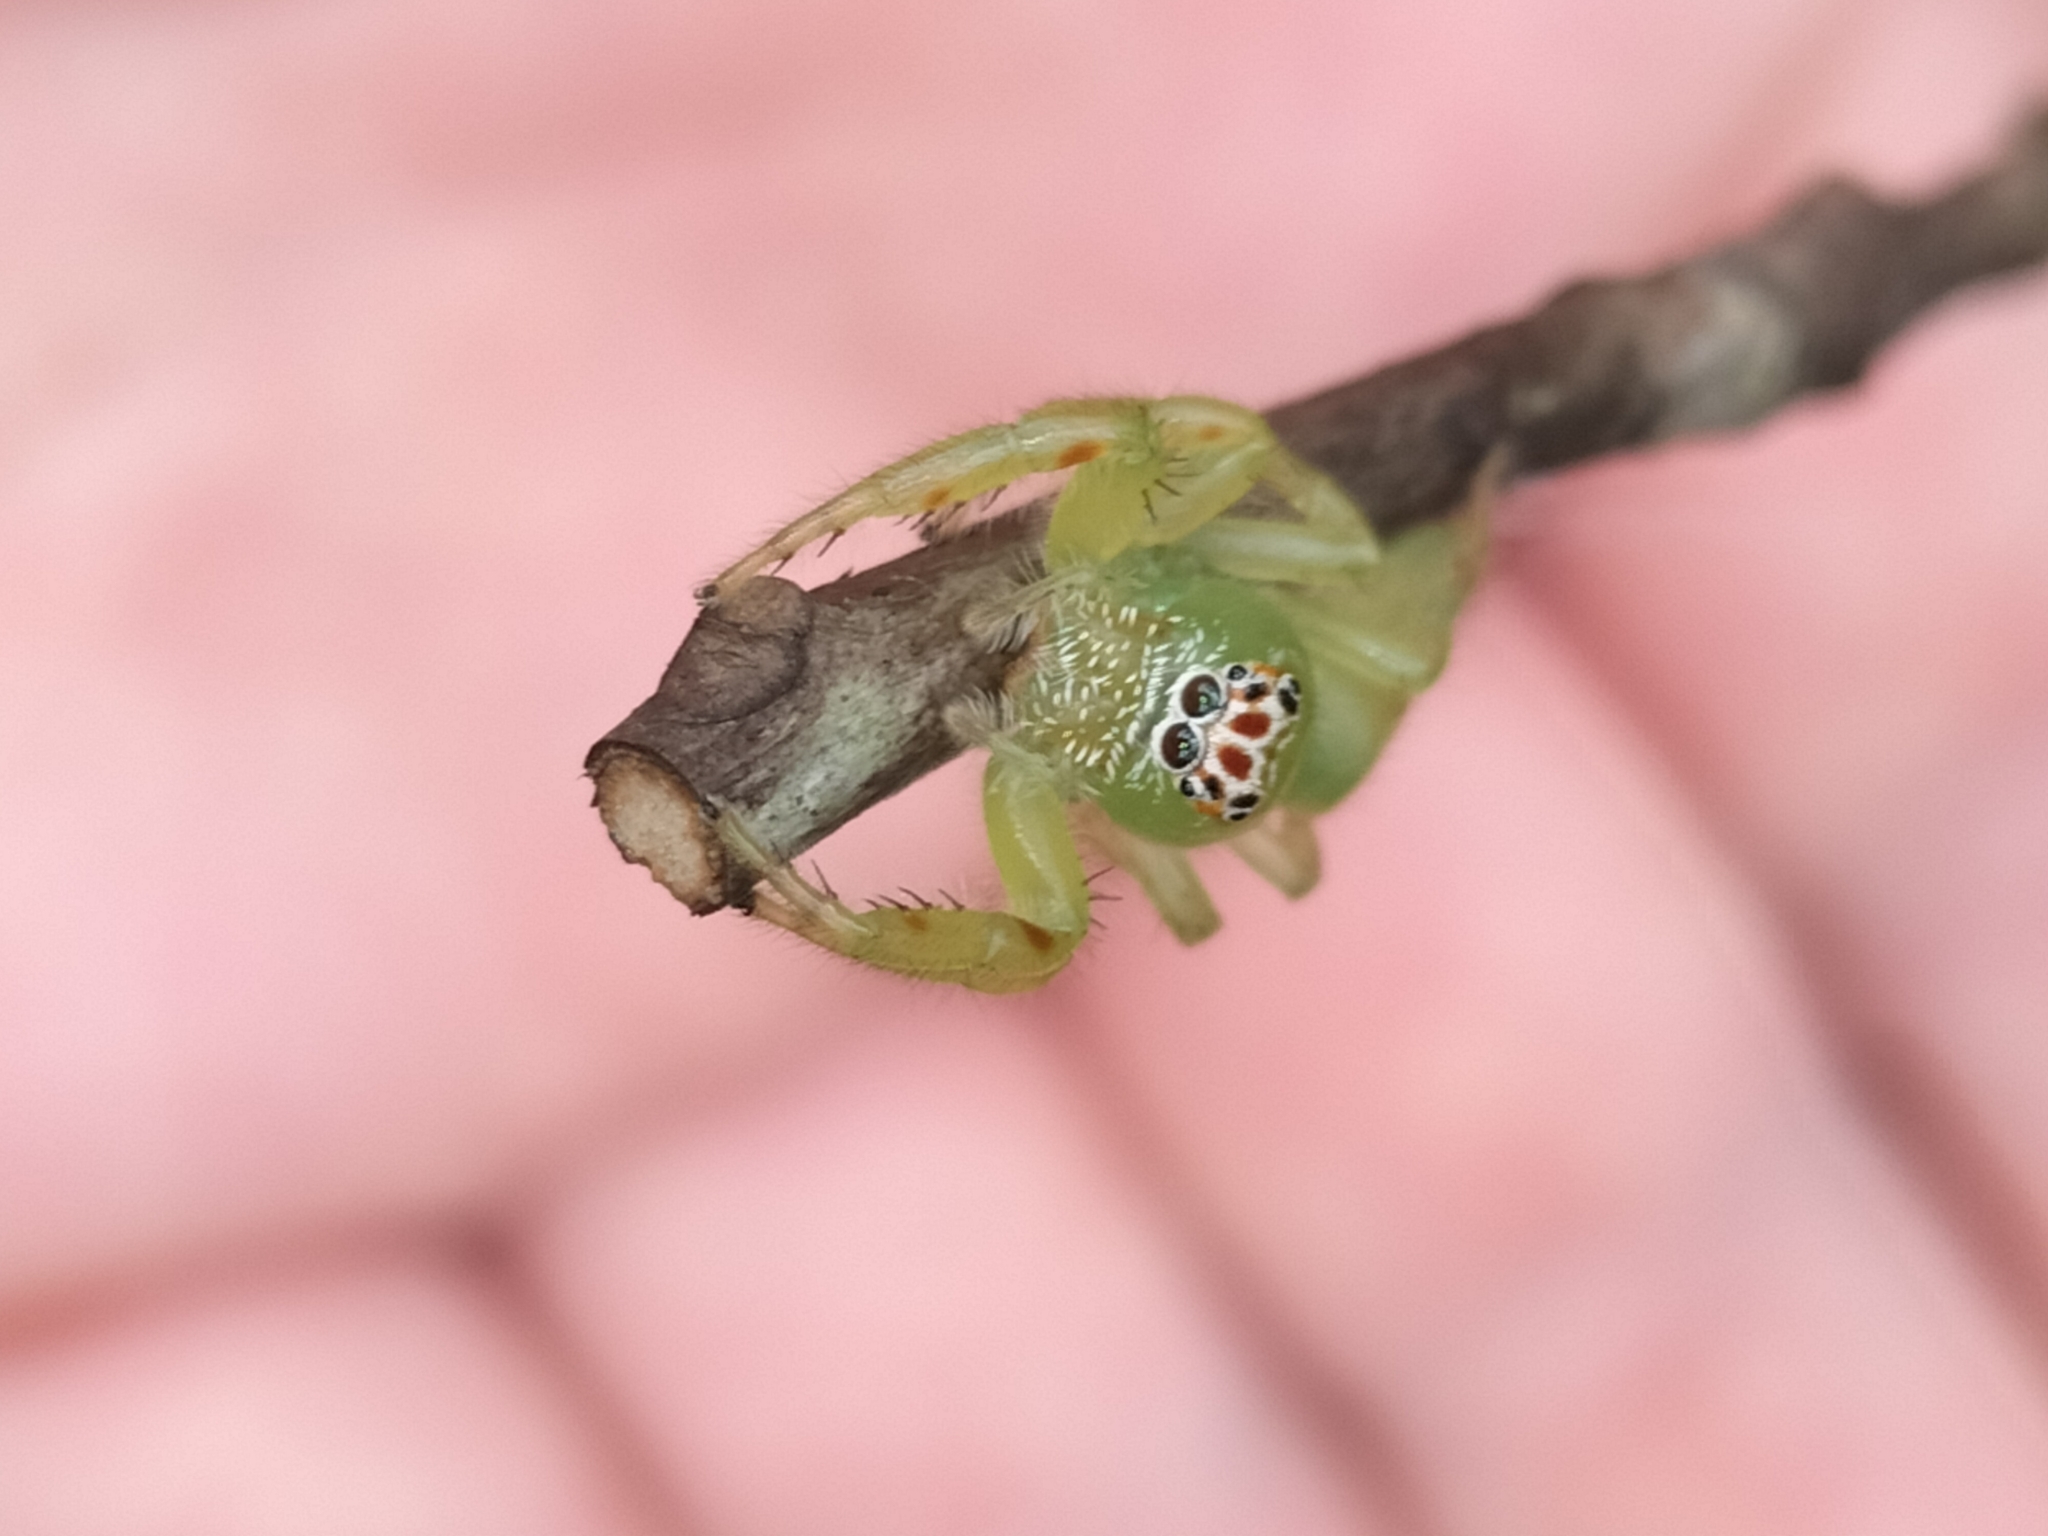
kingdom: Animalia
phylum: Arthropoda
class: Arachnida
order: Araneae
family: Salticidae
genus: Mopsus
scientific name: Mopsus mormon
